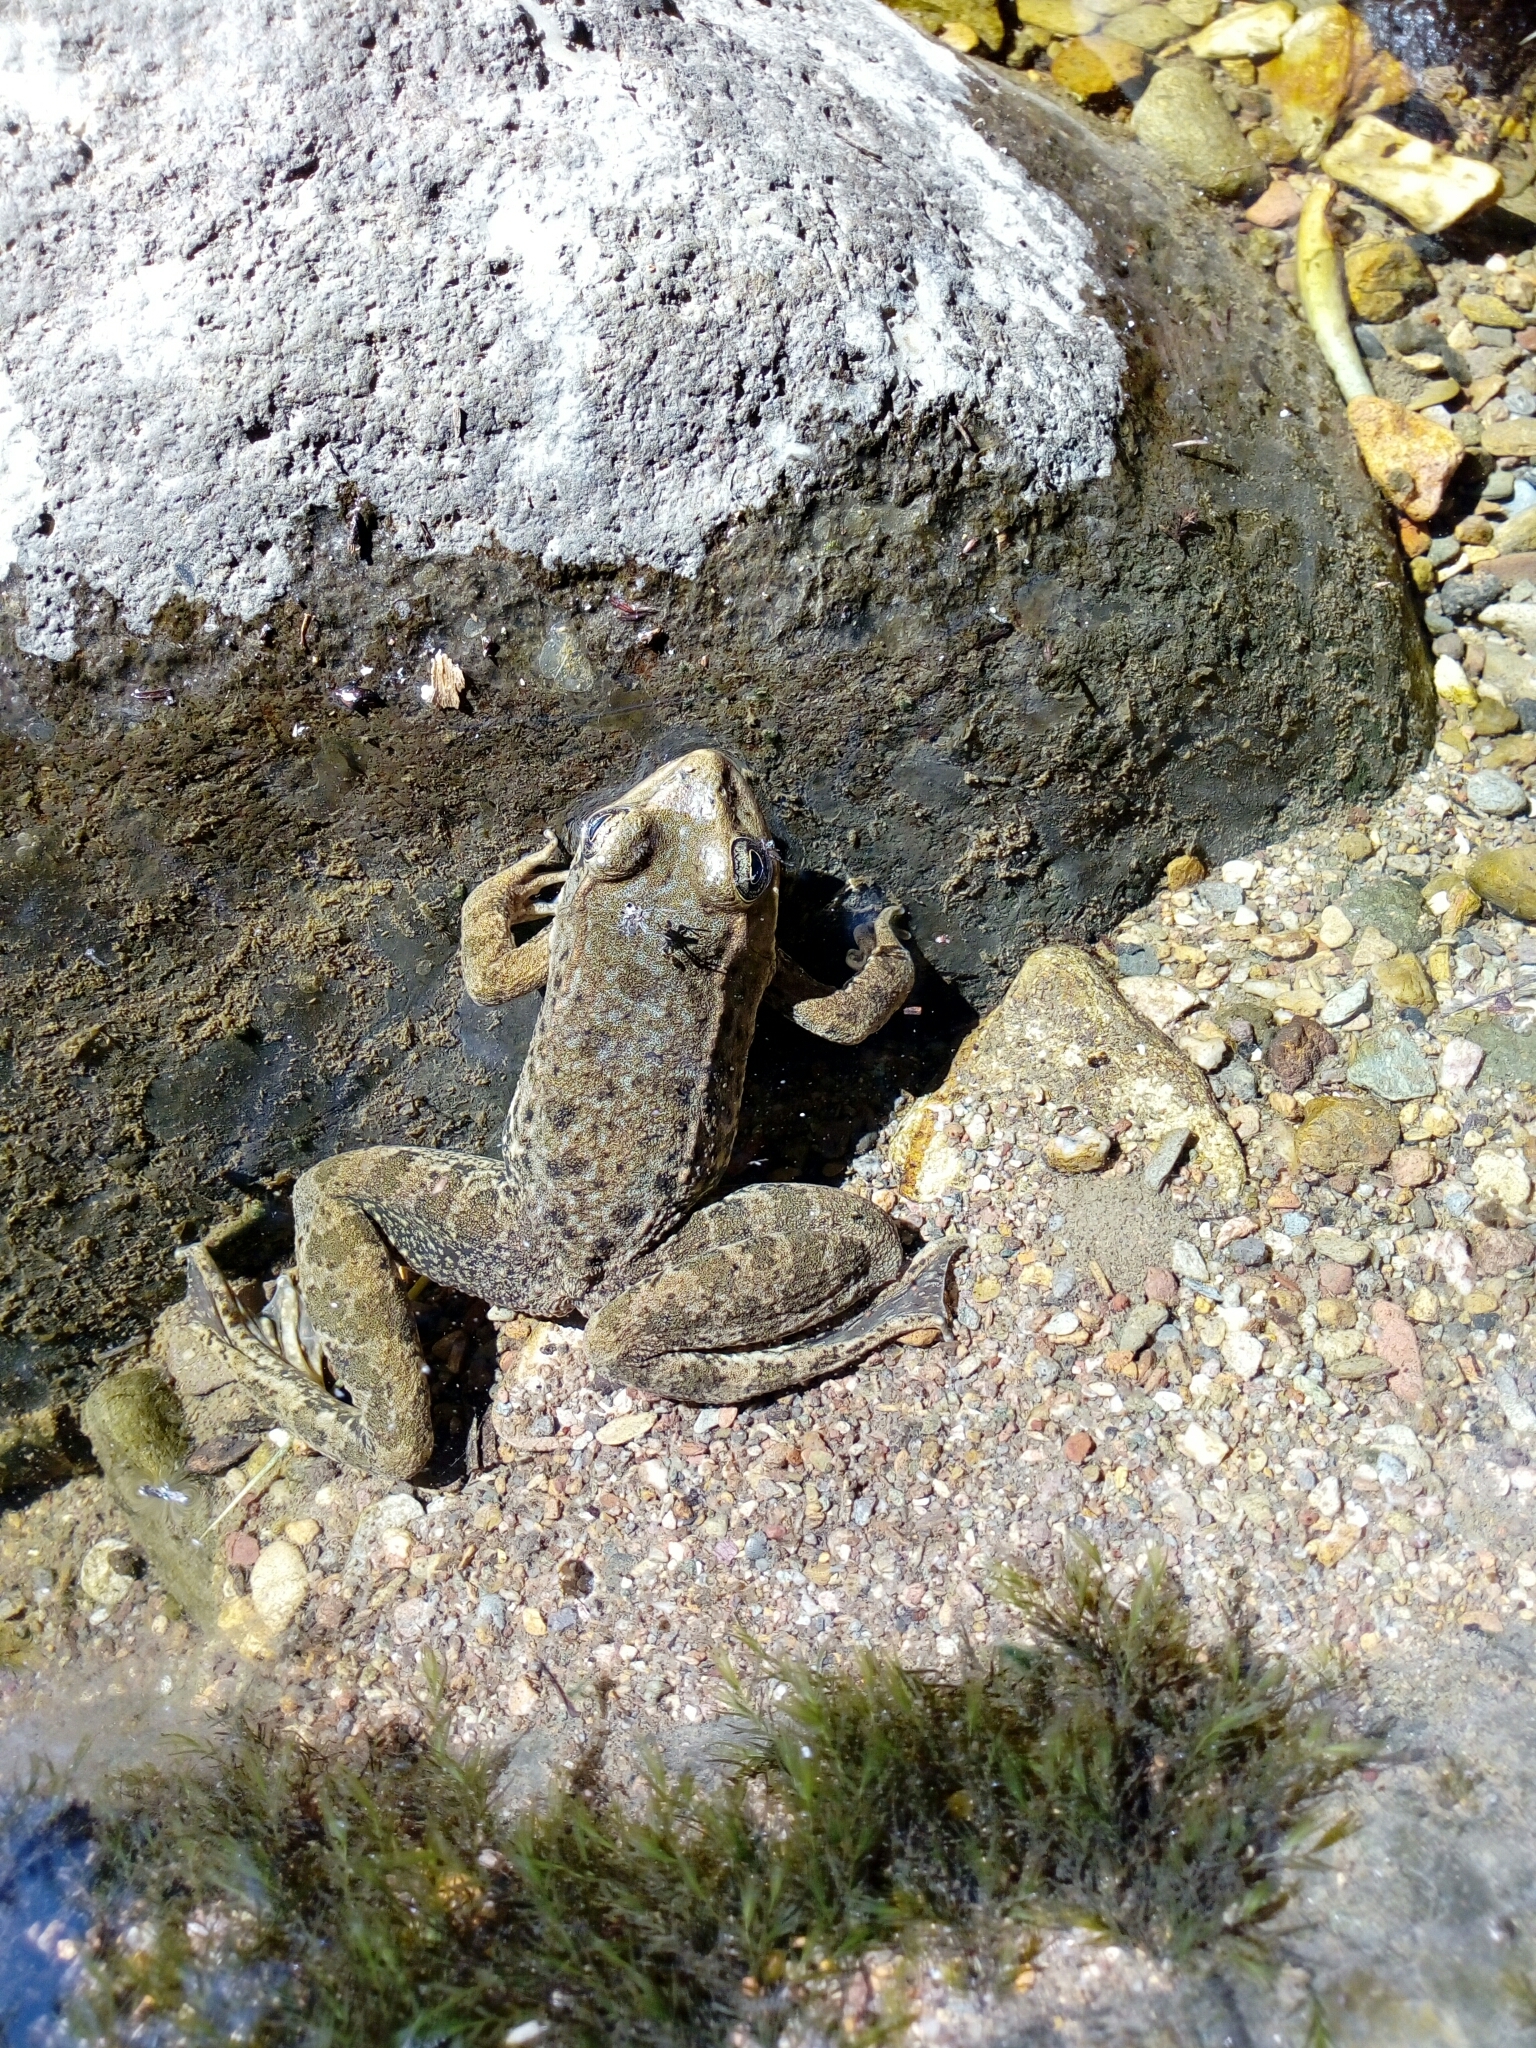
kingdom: Animalia
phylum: Chordata
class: Amphibia
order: Anura
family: Ranidae
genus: Lithobates
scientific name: Lithobates zweifeli
